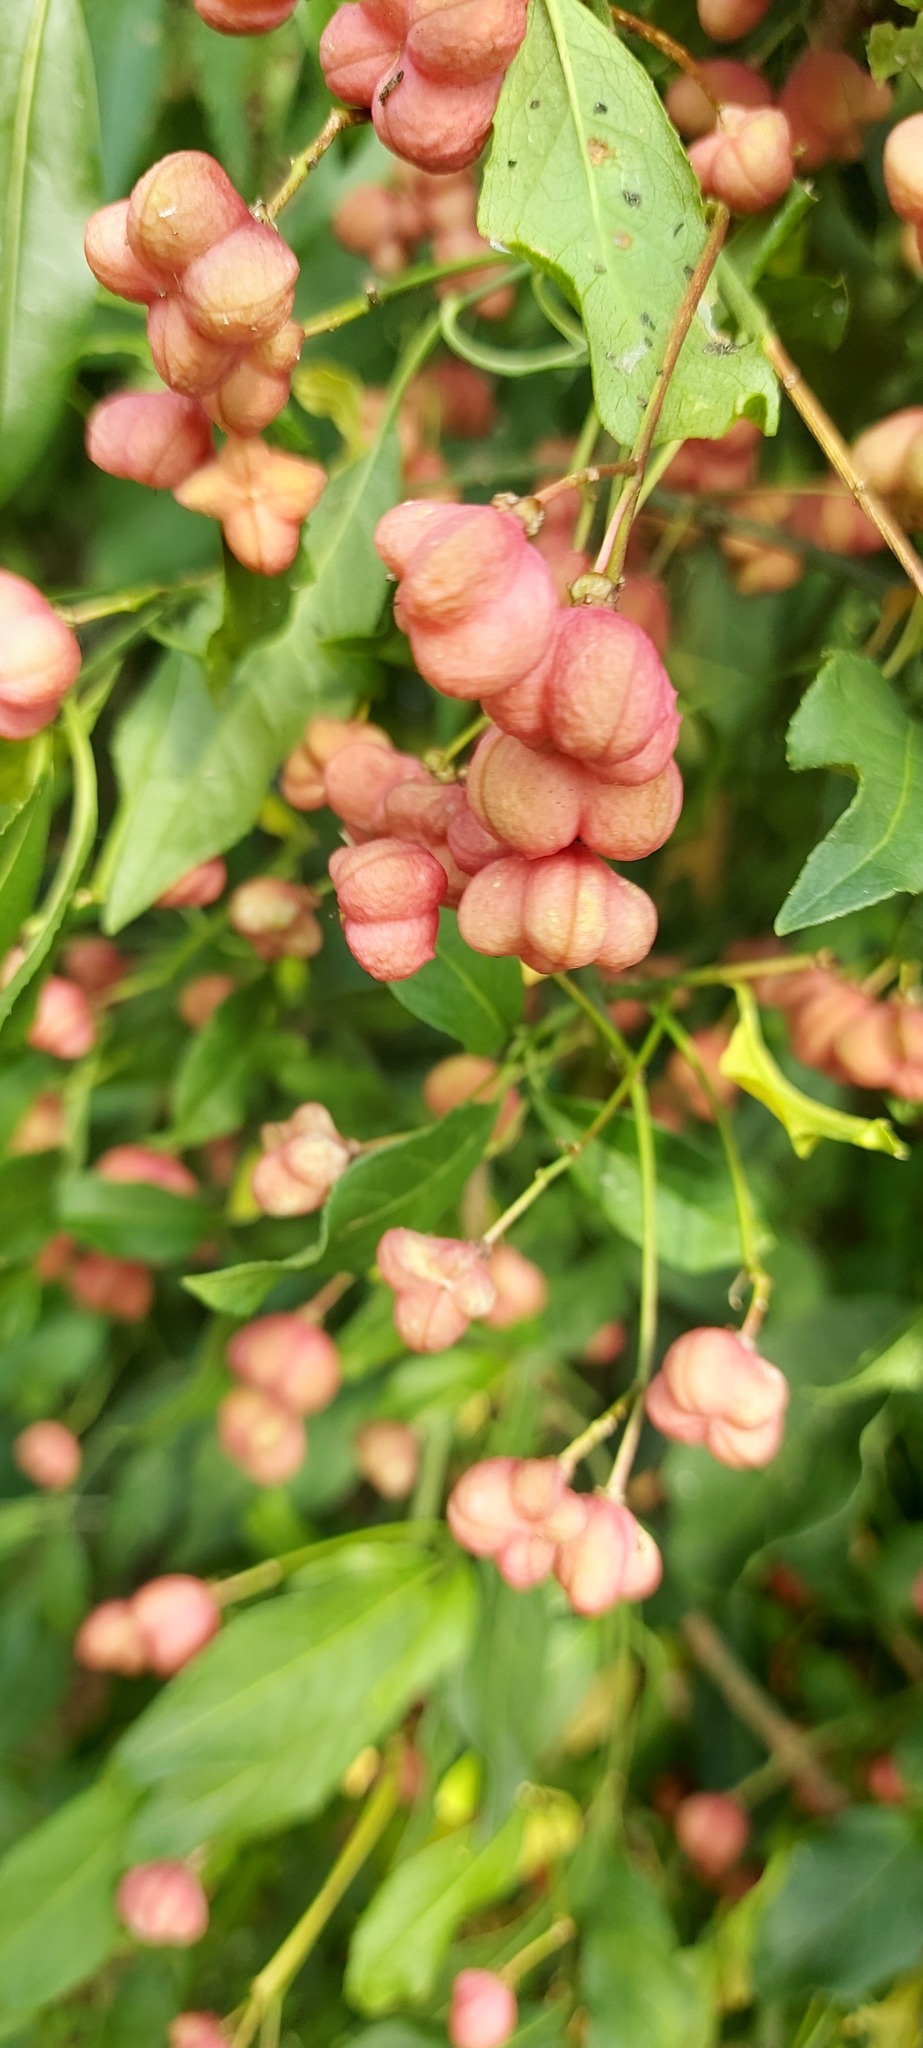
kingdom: Plantae
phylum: Tracheophyta
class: Magnoliopsida
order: Celastrales
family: Celastraceae
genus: Euonymus
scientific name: Euonymus europaeus
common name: Spindle
